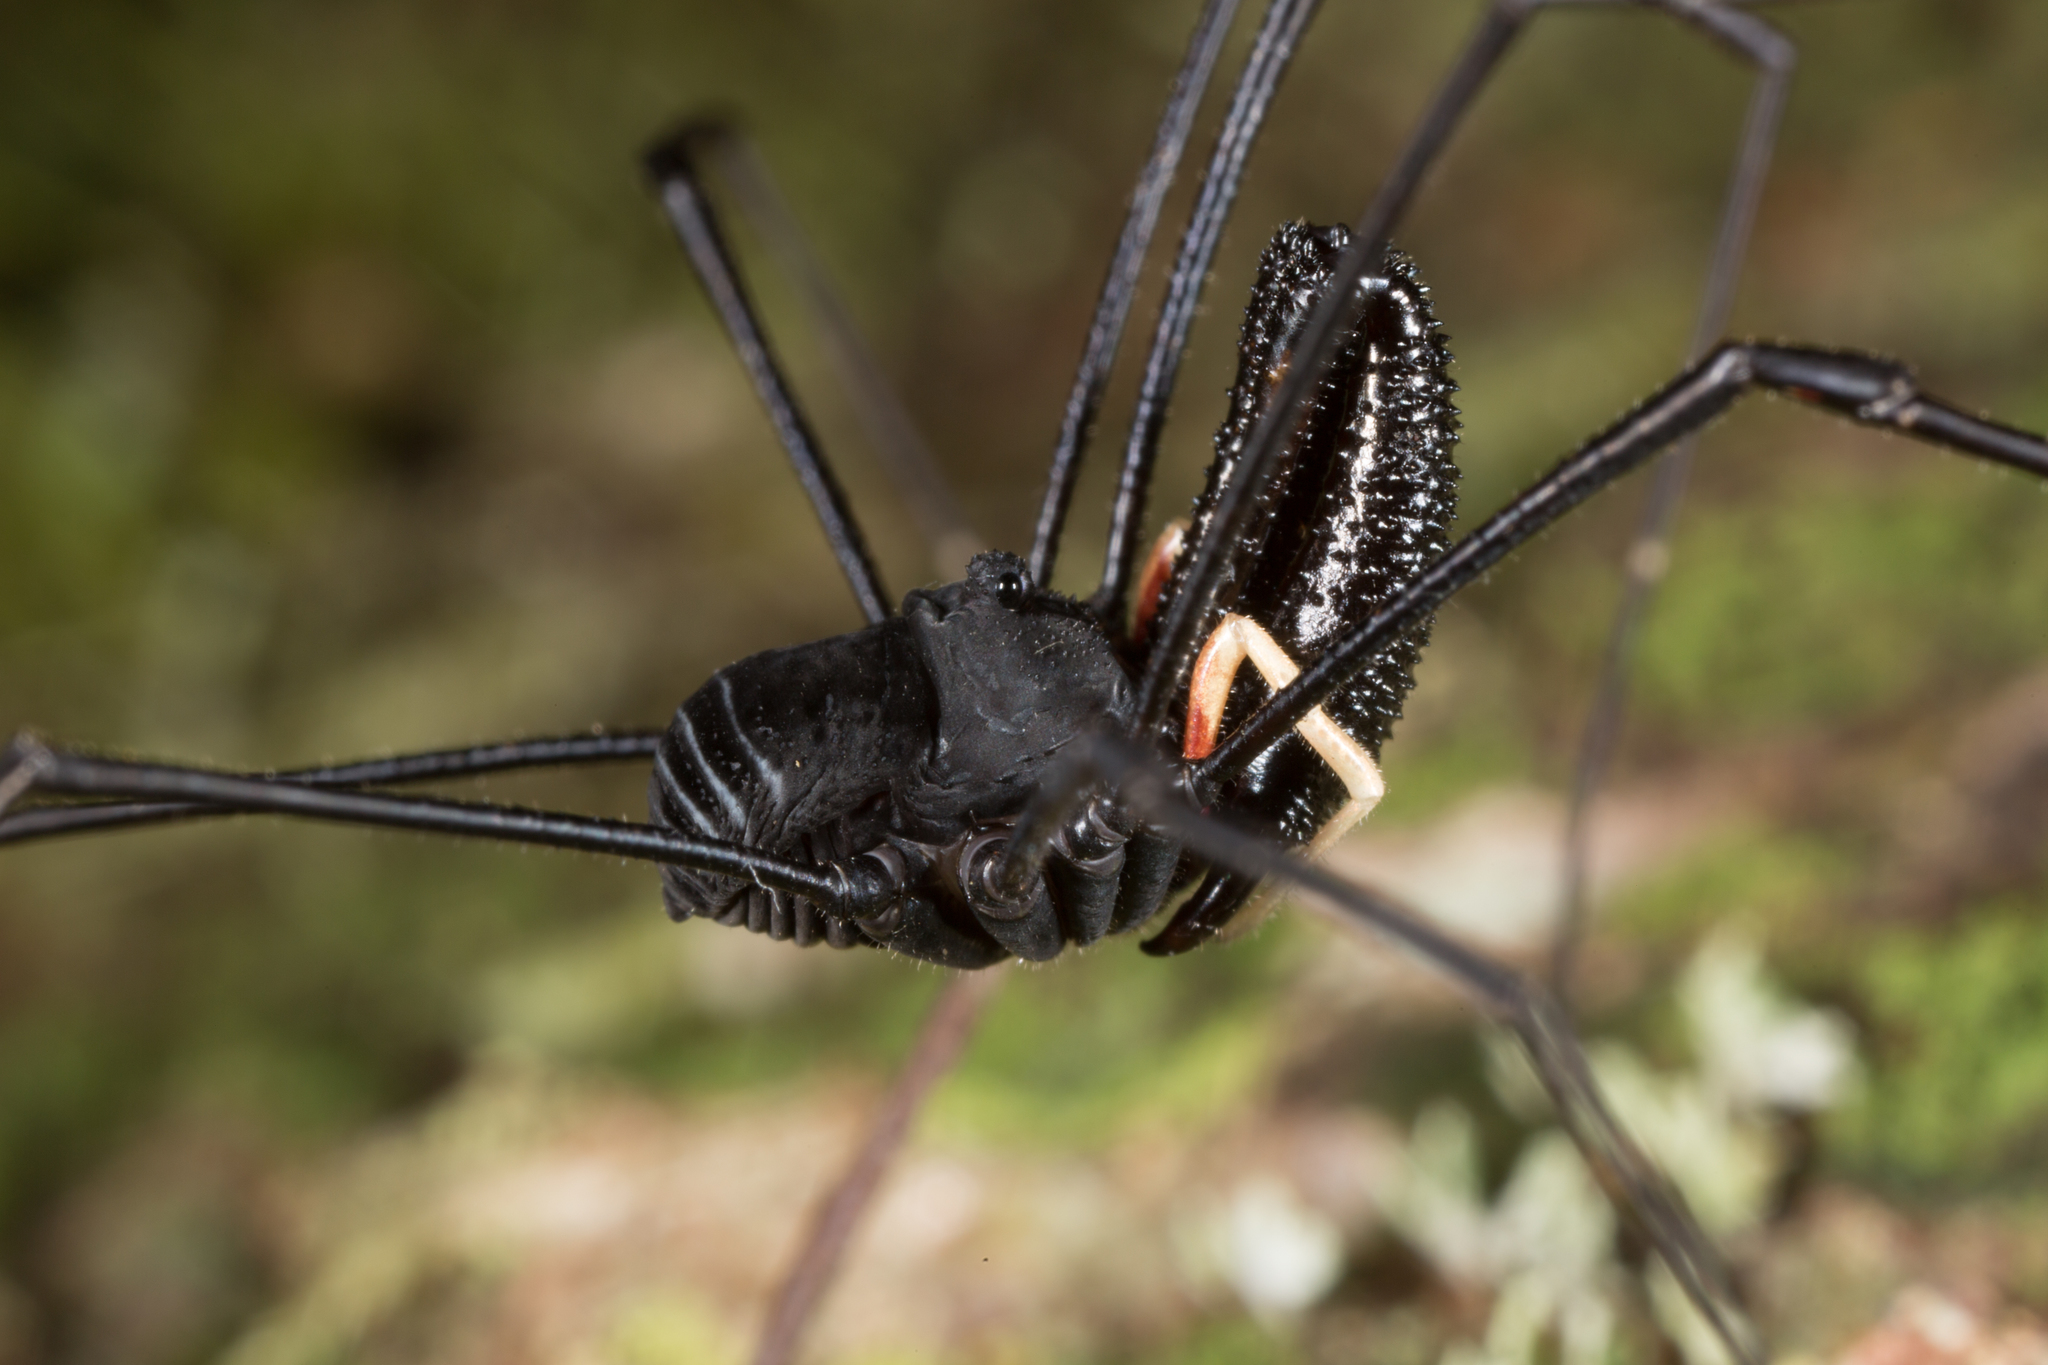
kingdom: Animalia
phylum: Arthropoda
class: Arachnida
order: Opiliones
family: Neopilionidae
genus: Pantopsalis
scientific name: Pantopsalis cheliferoides
